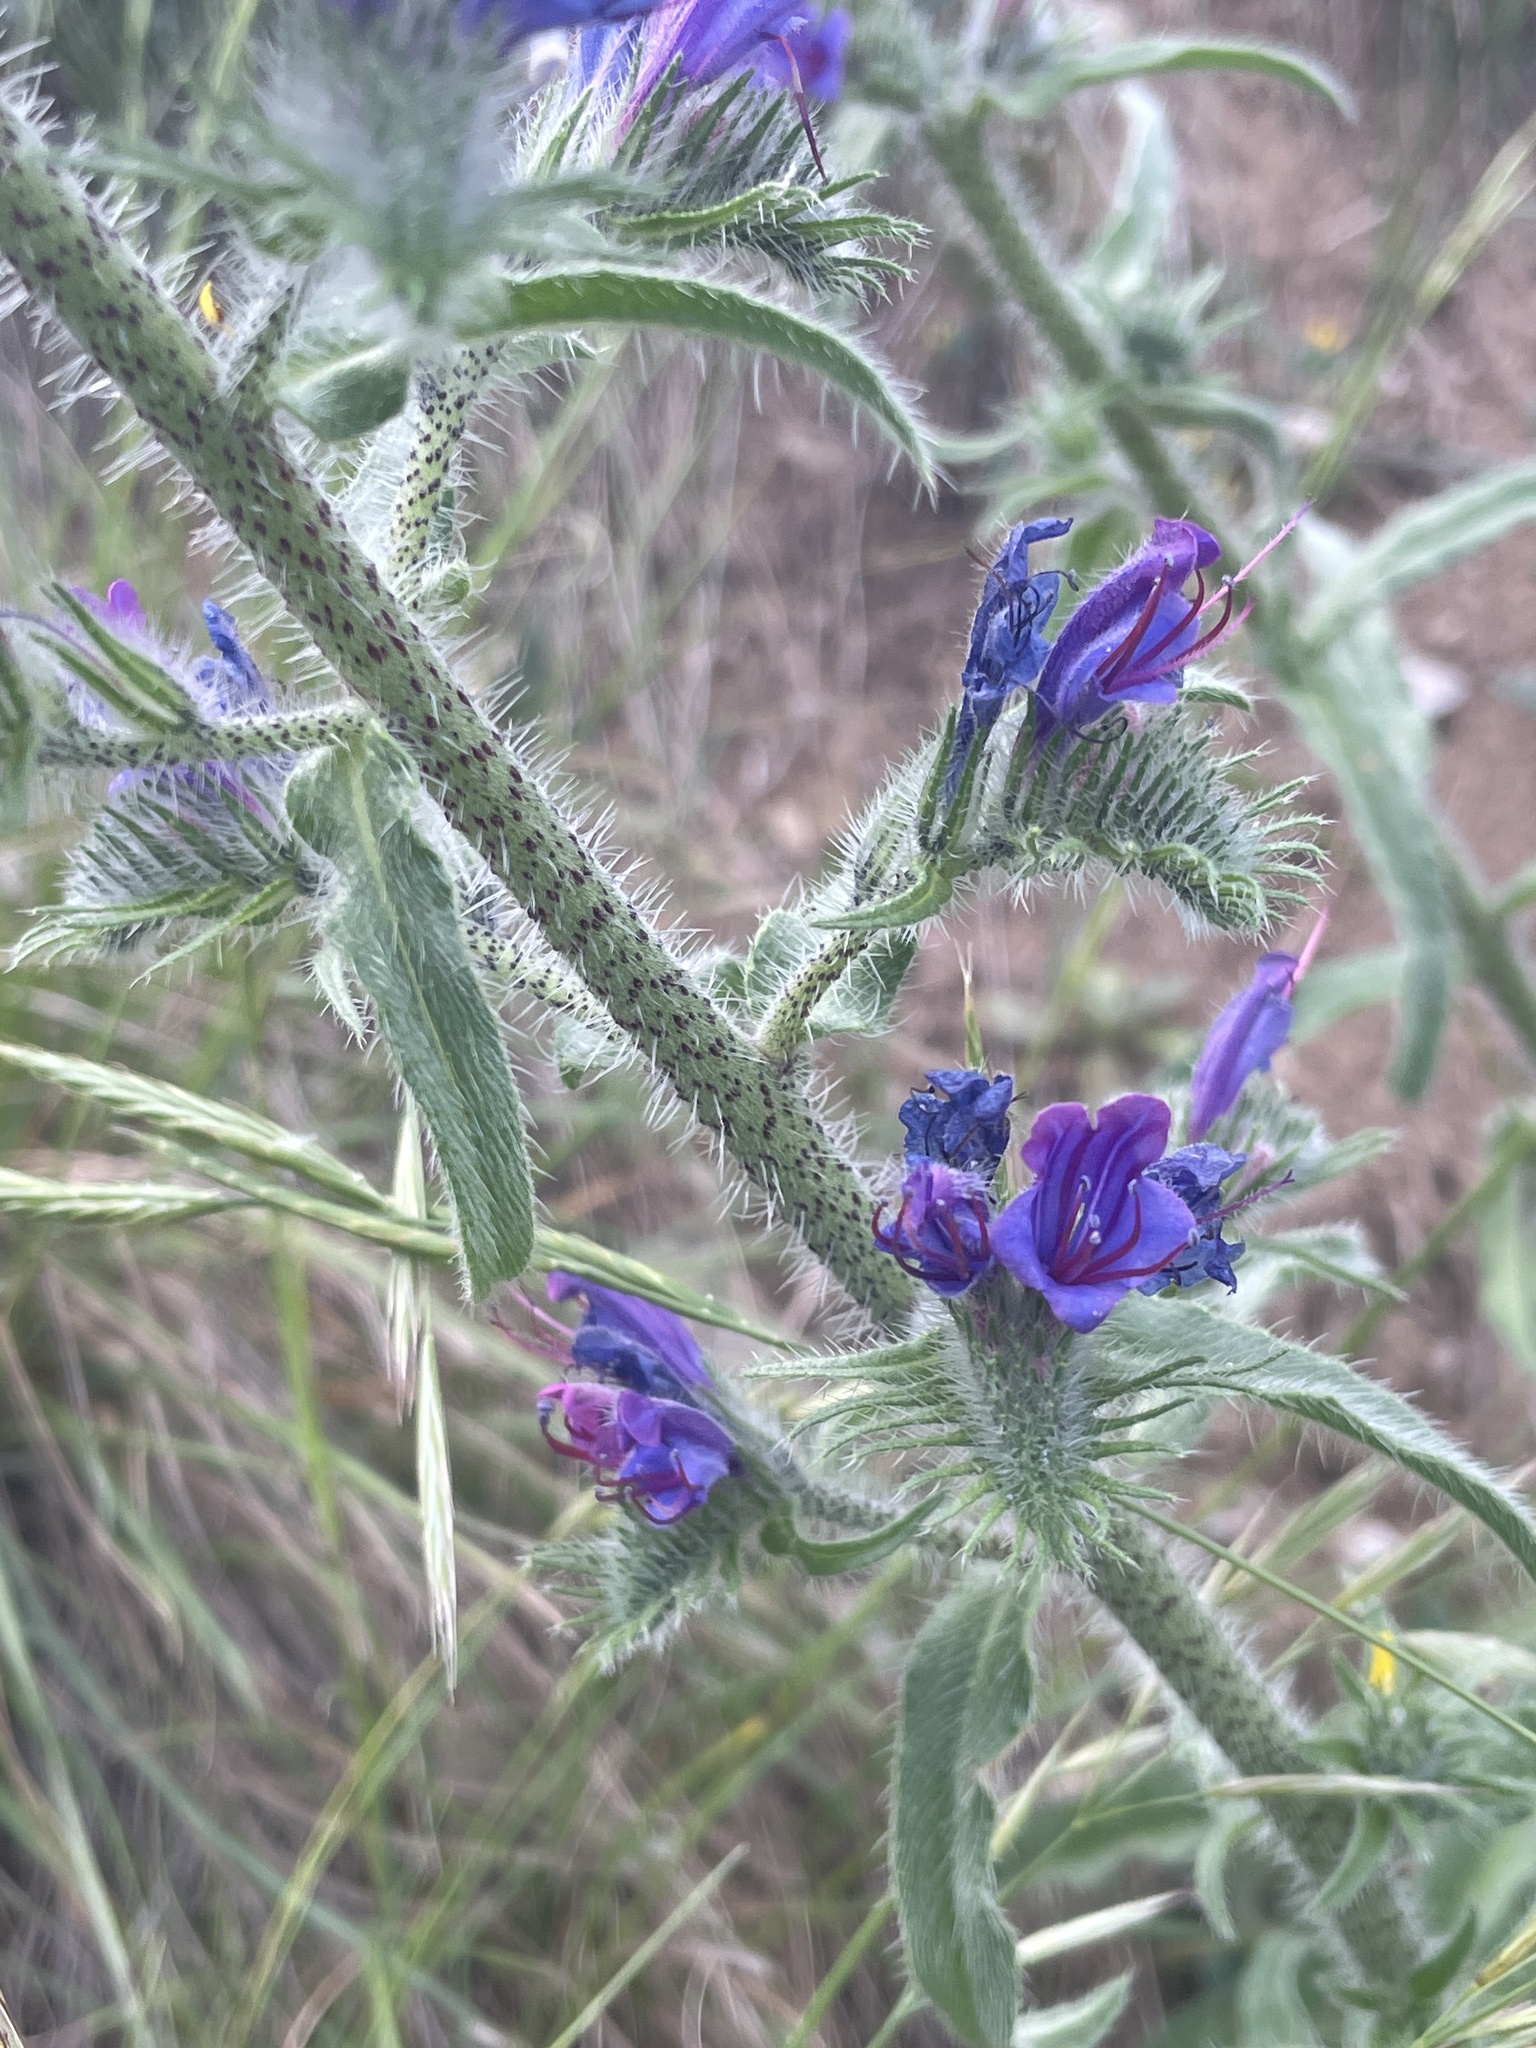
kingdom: Plantae
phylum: Tracheophyta
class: Magnoliopsida
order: Boraginales
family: Boraginaceae
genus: Echium
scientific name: Echium vulgare
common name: Common viper's bugloss
